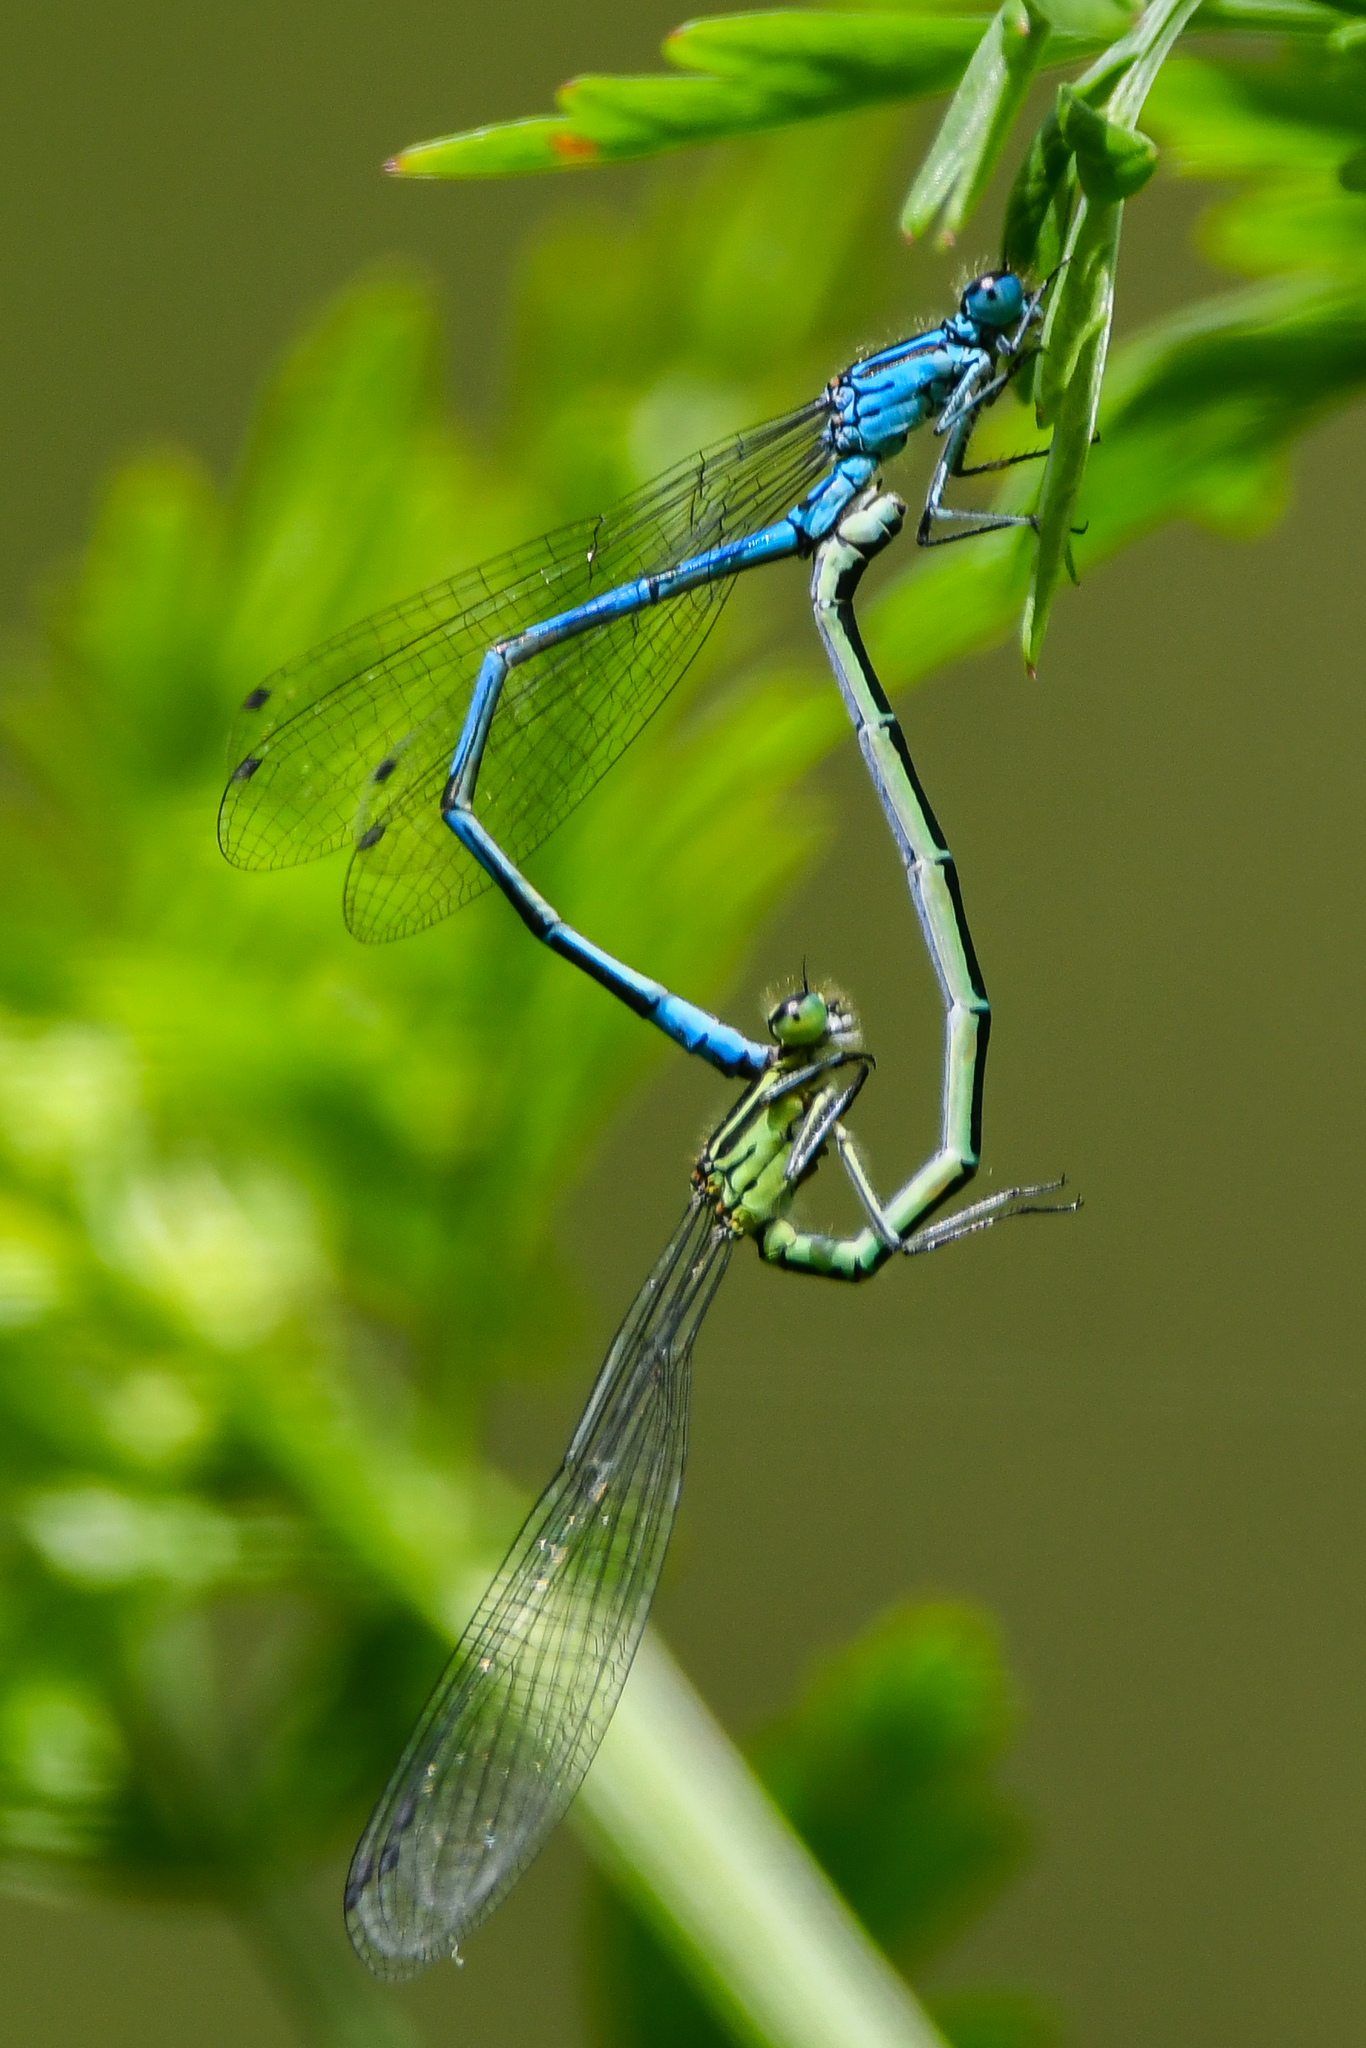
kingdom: Animalia
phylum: Arthropoda
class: Insecta
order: Odonata
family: Coenagrionidae
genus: Coenagrion
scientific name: Coenagrion puella
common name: Azure damselfly
